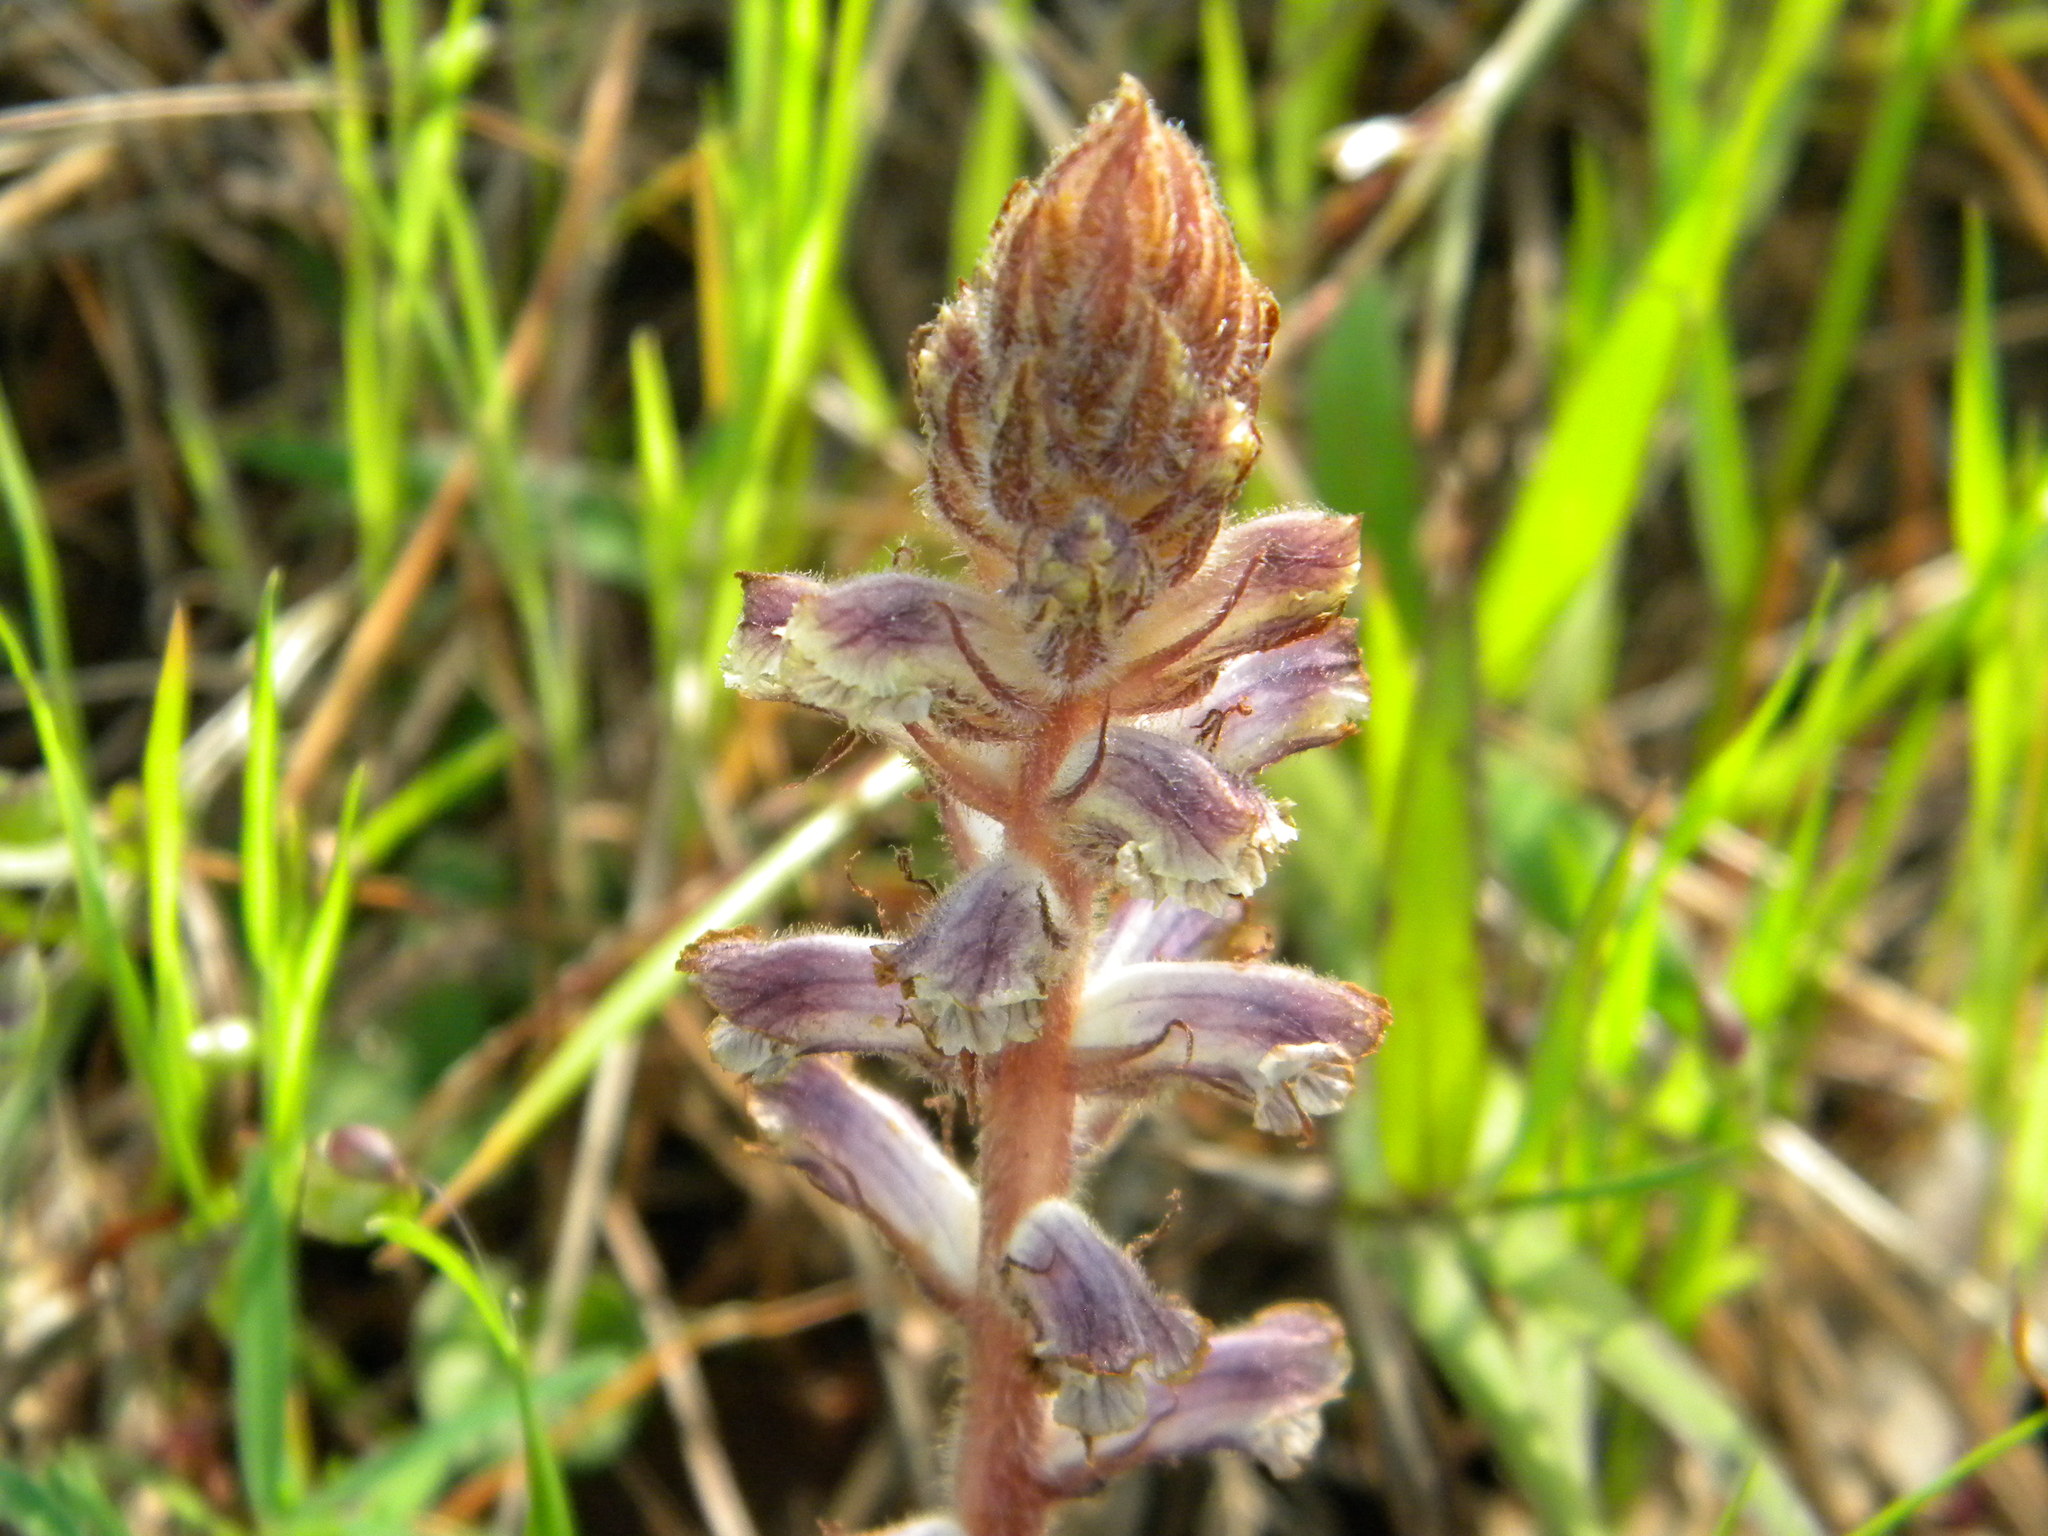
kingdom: Plantae
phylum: Tracheophyta
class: Magnoliopsida
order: Lamiales
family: Orobanchaceae
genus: Orobanche
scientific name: Orobanche minor
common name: Common broomrape
